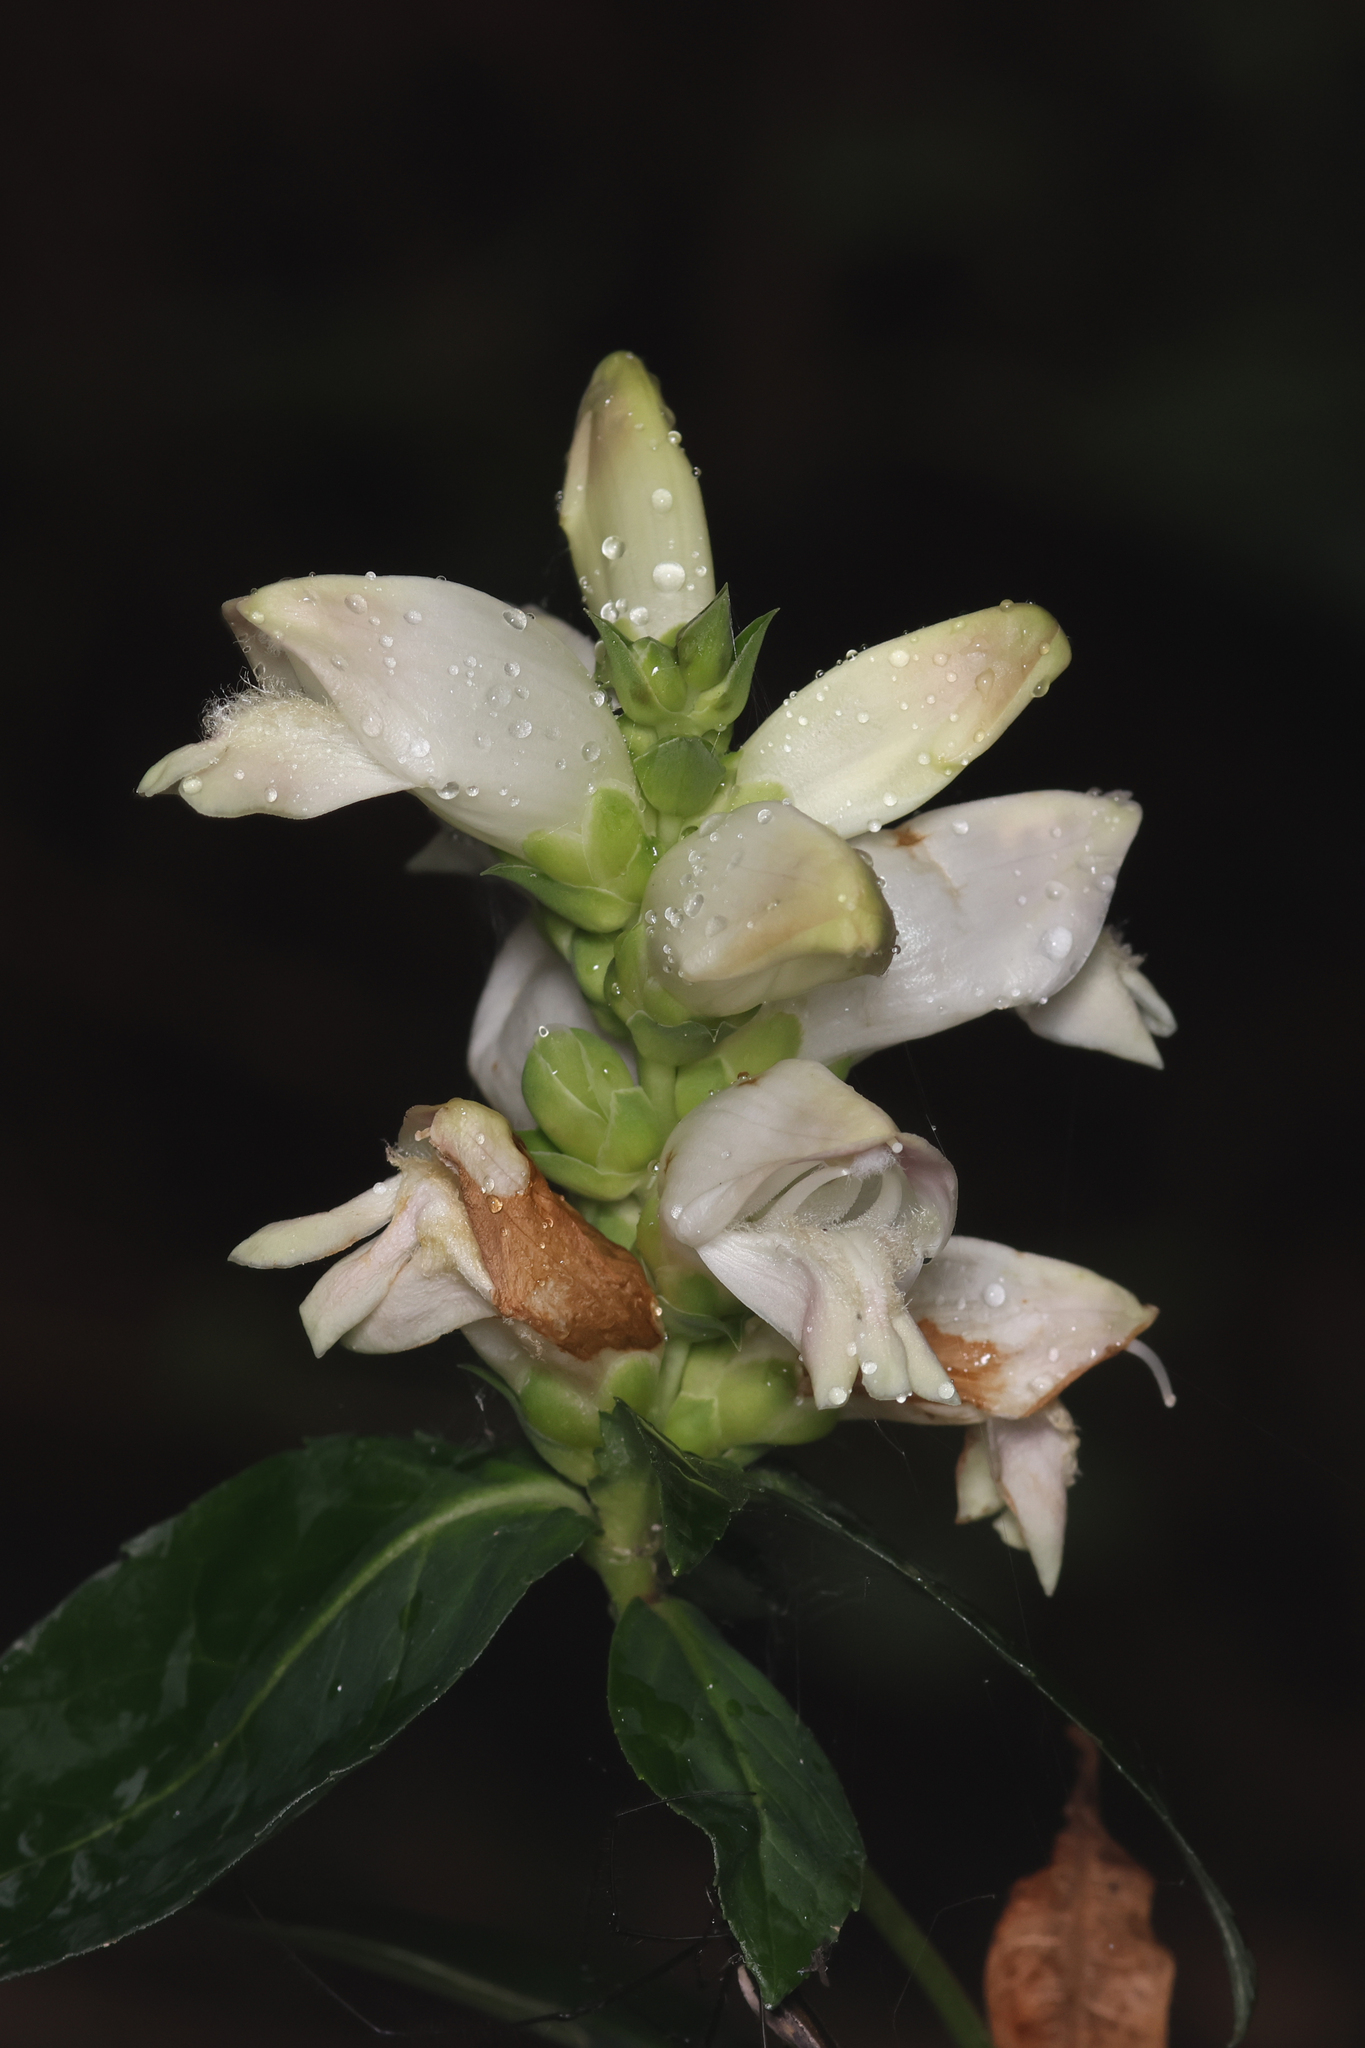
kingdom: Plantae
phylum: Tracheophyta
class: Magnoliopsida
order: Lamiales
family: Plantaginaceae
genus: Chelone
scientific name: Chelone glabra
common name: Snakehead
